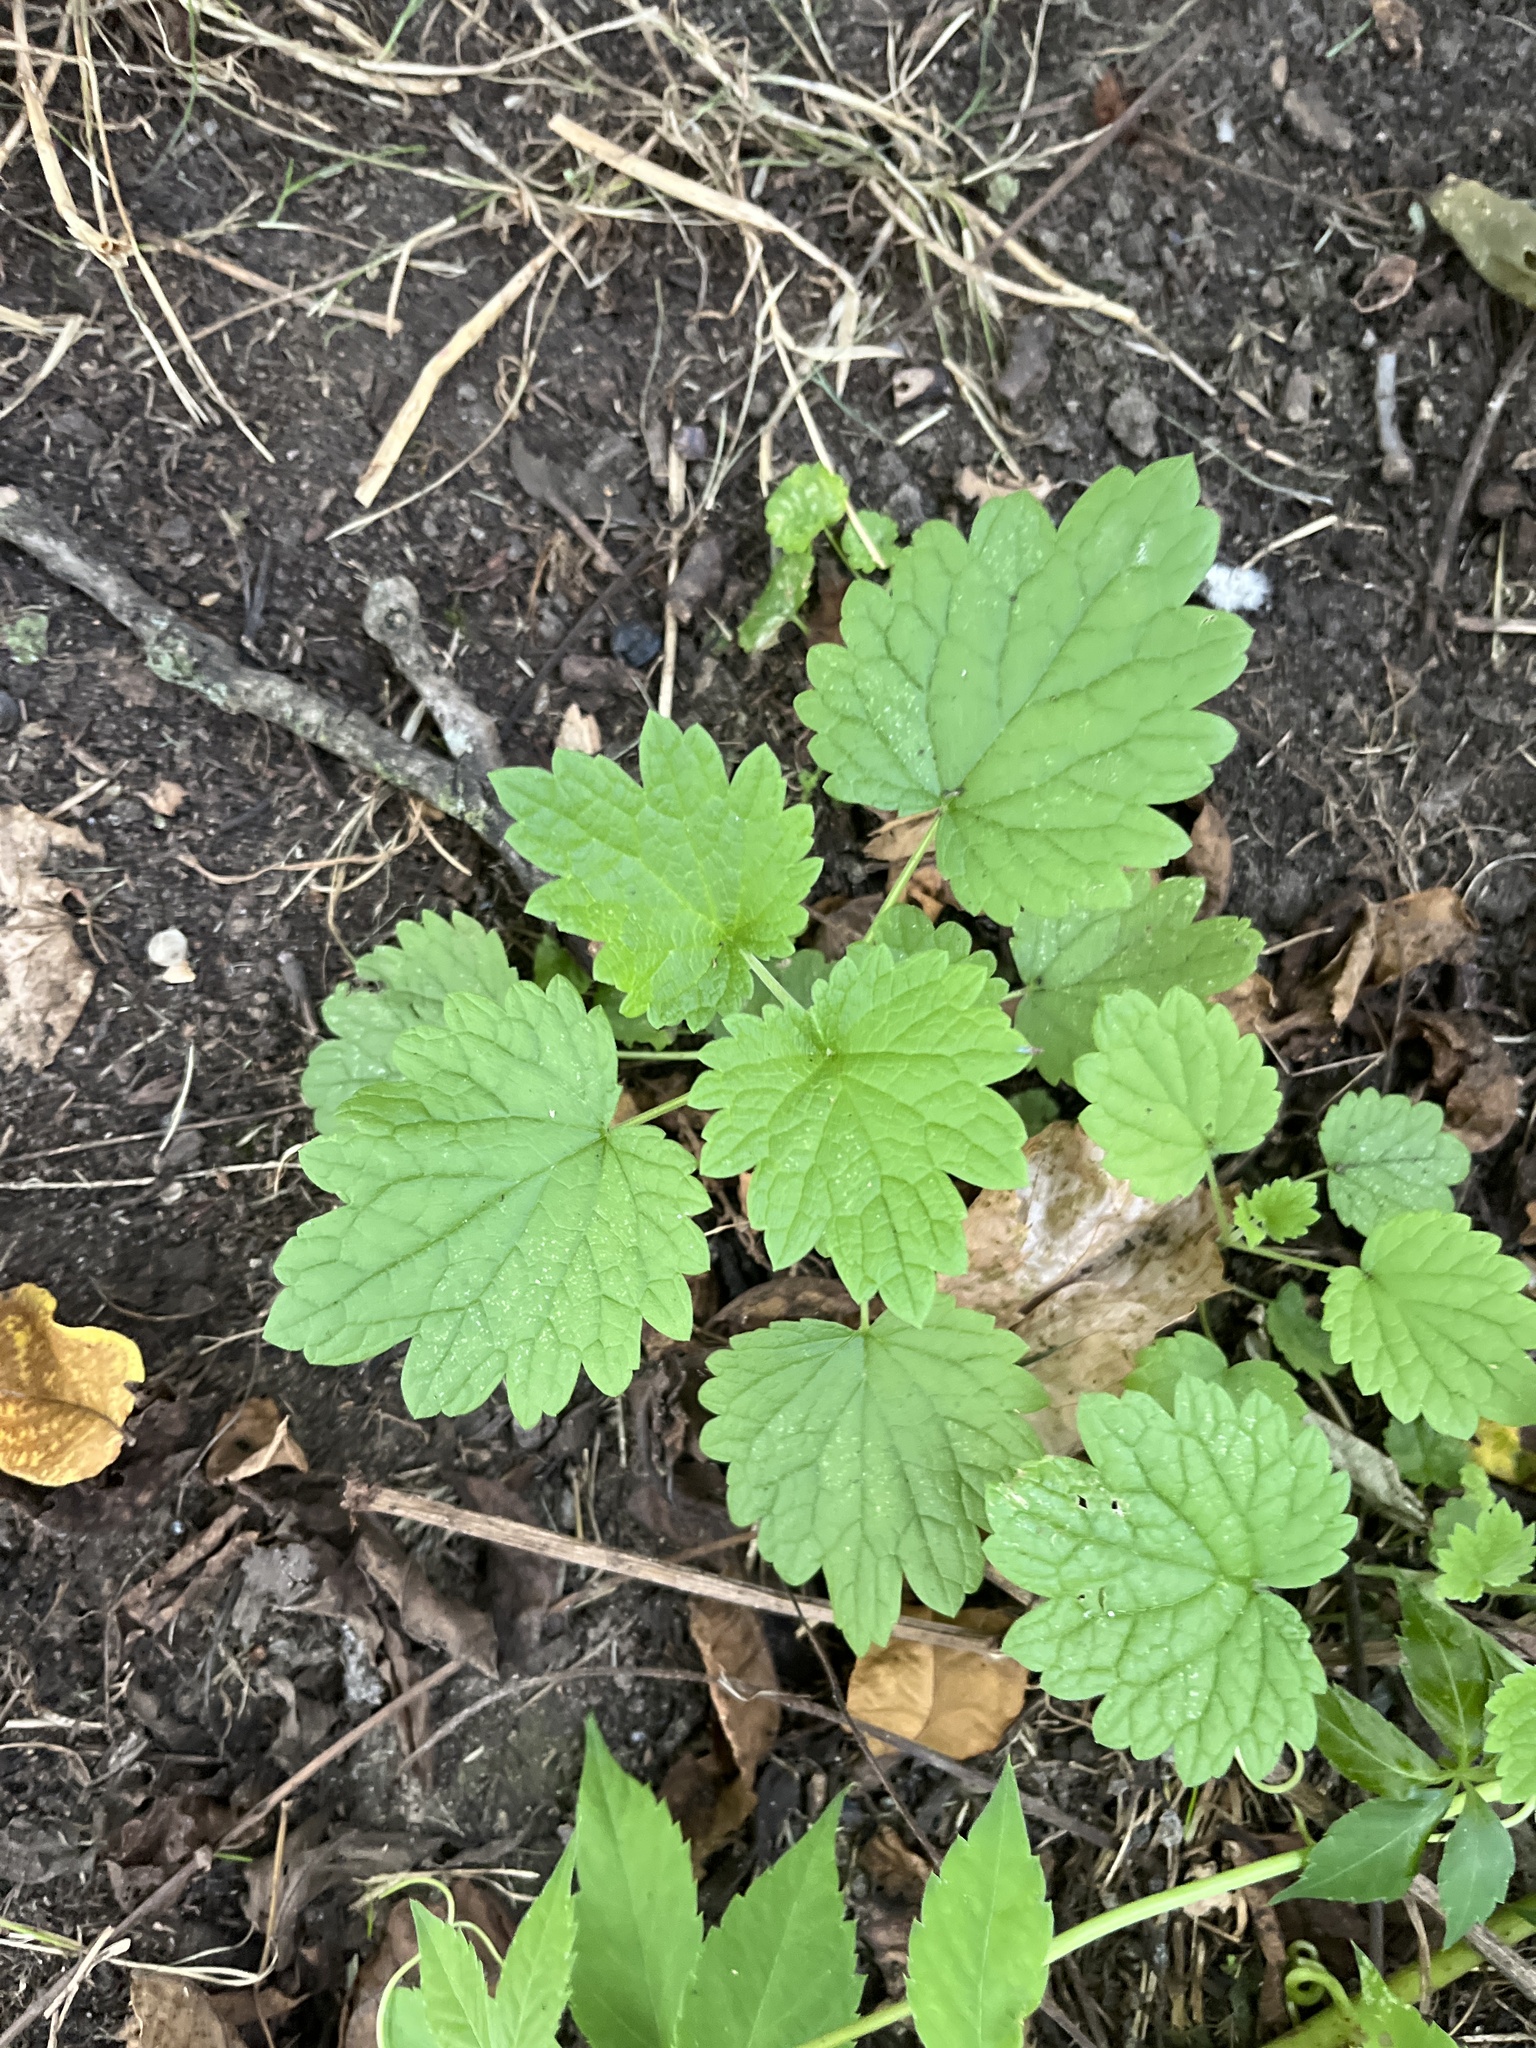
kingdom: Plantae
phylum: Tracheophyta
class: Magnoliopsida
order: Lamiales
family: Lamiaceae
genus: Leonurus
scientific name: Leonurus cardiaca
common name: Motherwort
